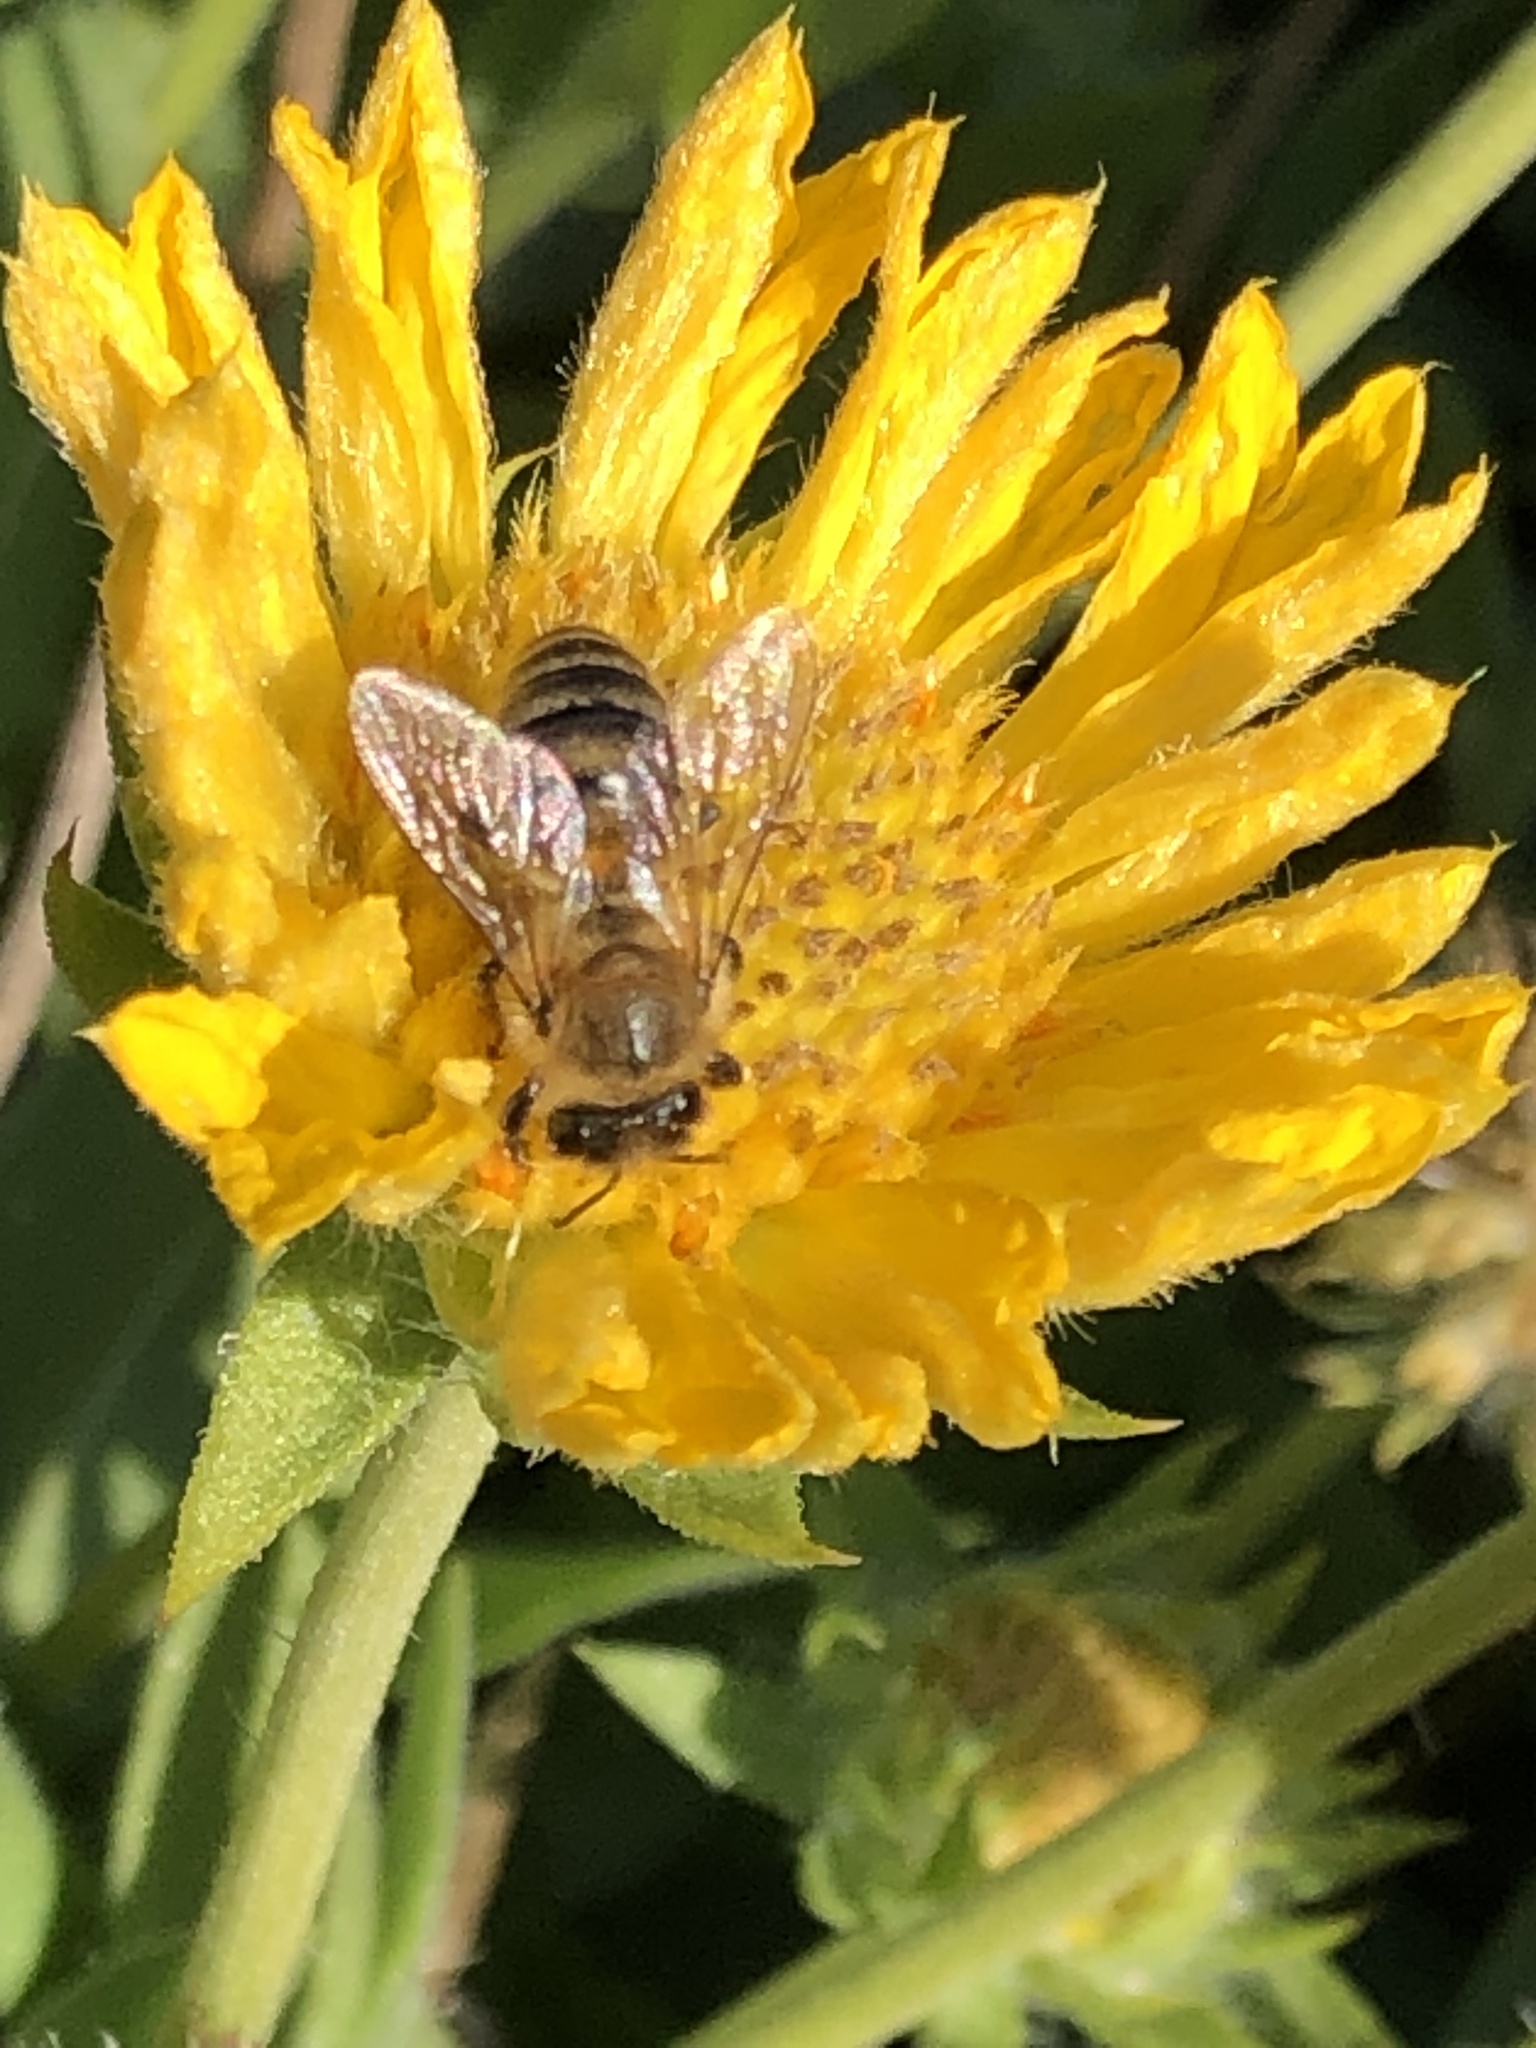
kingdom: Animalia
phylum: Arthropoda
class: Insecta
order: Hymenoptera
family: Apidae
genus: Apis
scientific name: Apis mellifera
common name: Honey bee
